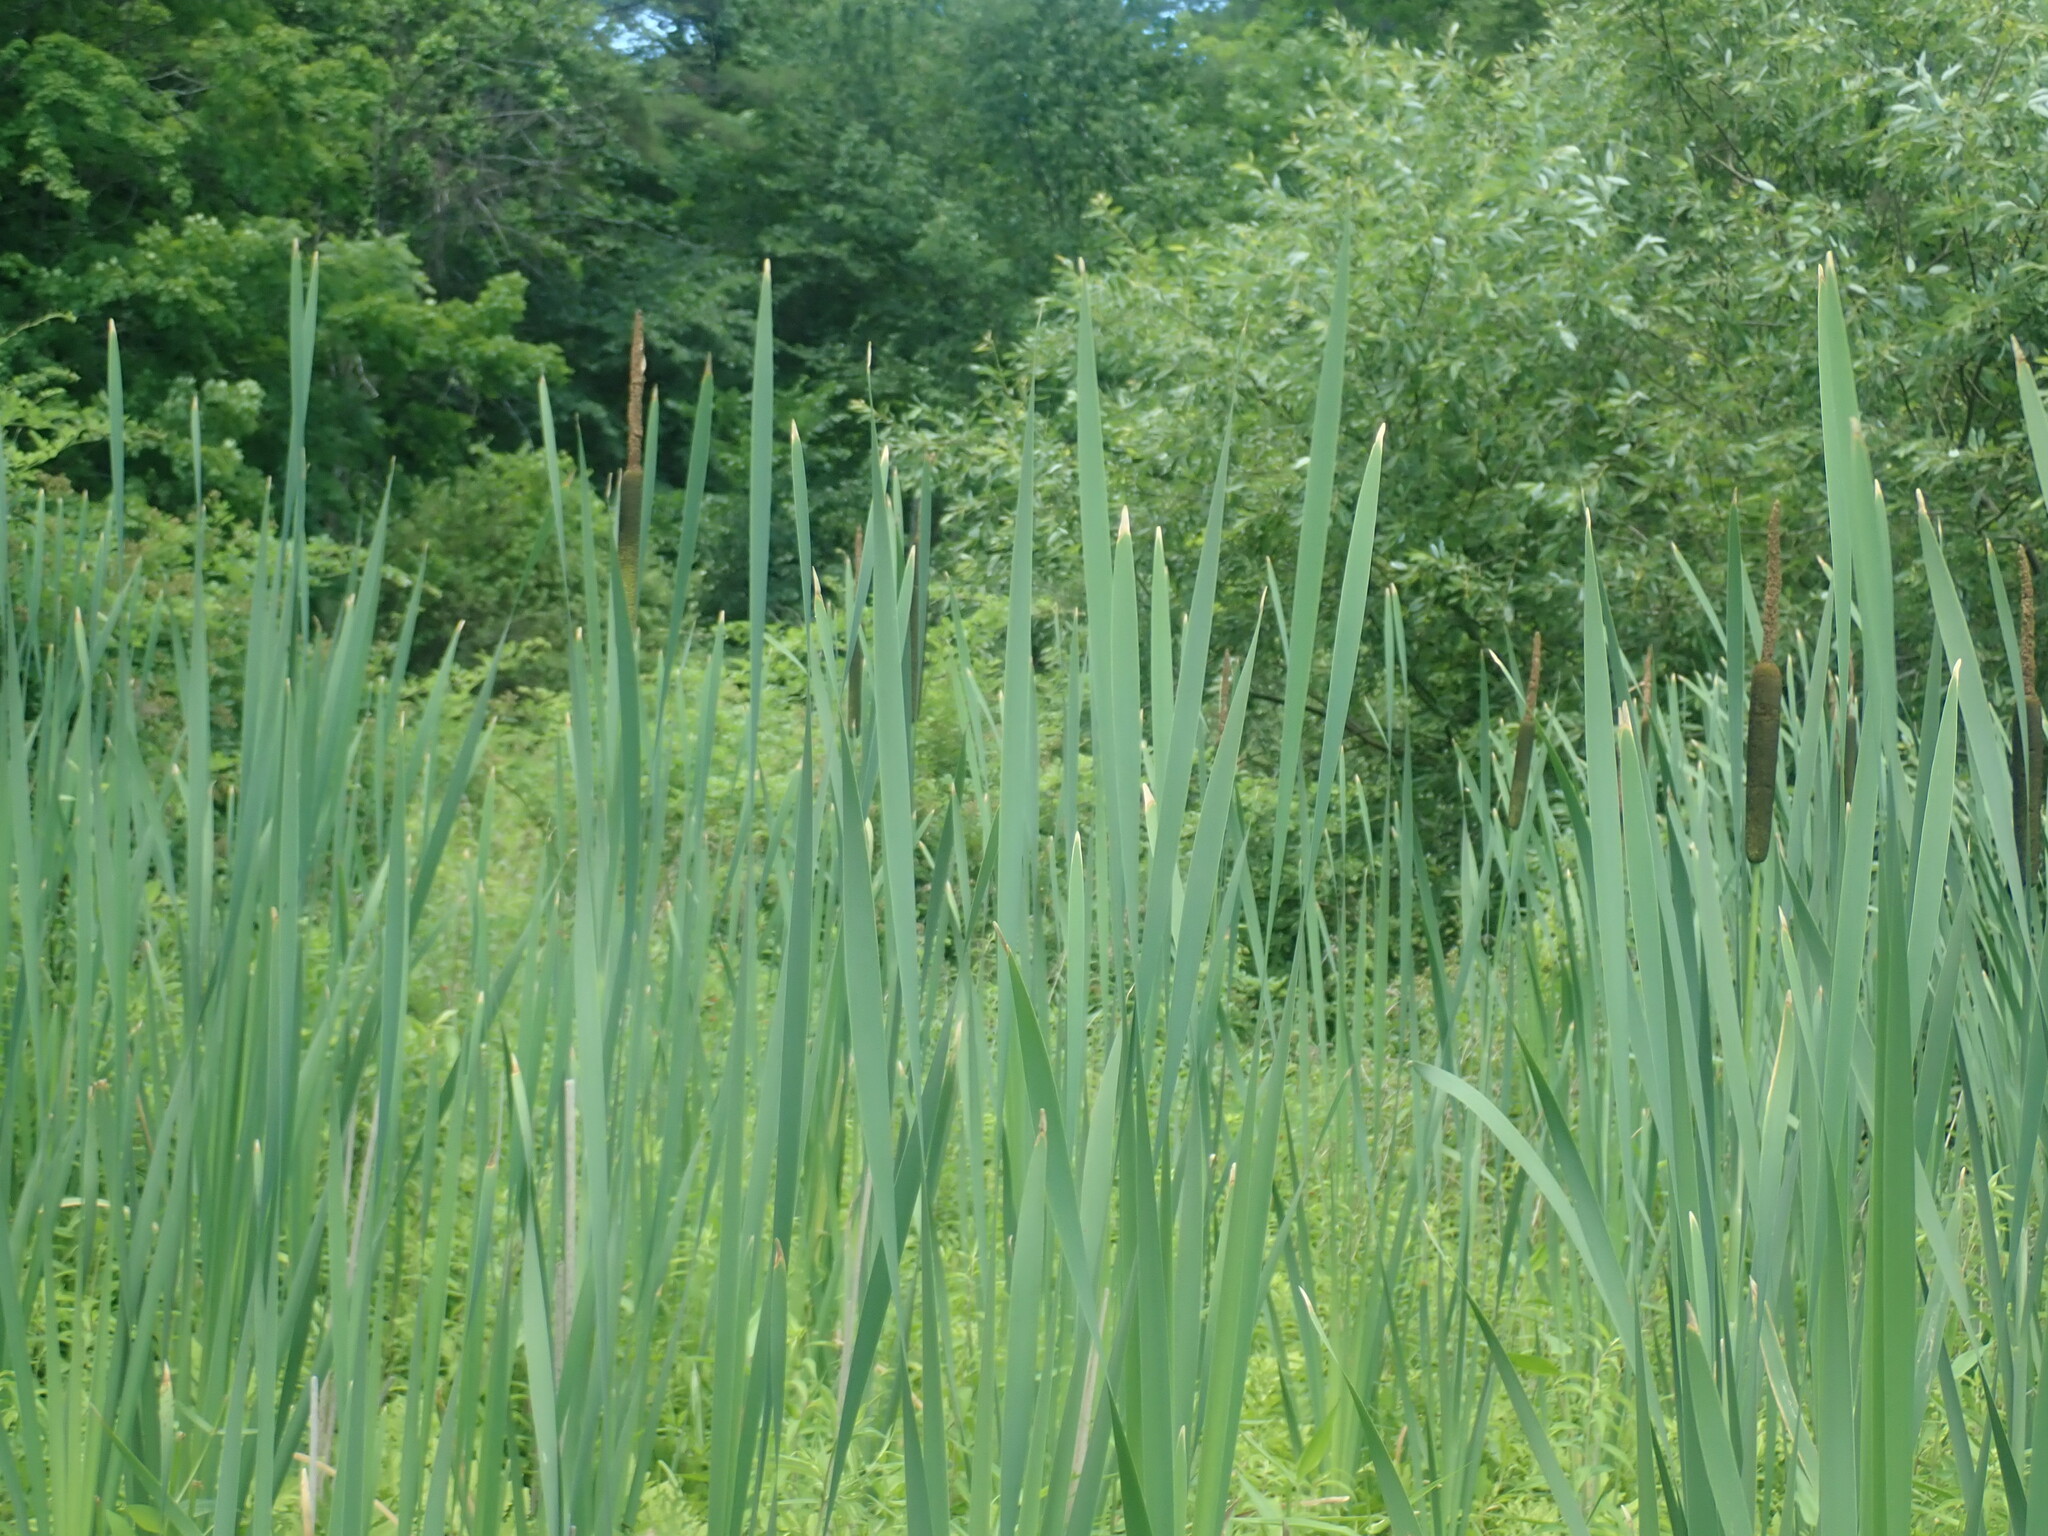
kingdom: Plantae
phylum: Tracheophyta
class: Liliopsida
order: Poales
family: Typhaceae
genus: Typha
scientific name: Typha latifolia
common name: Broadleaf cattail
